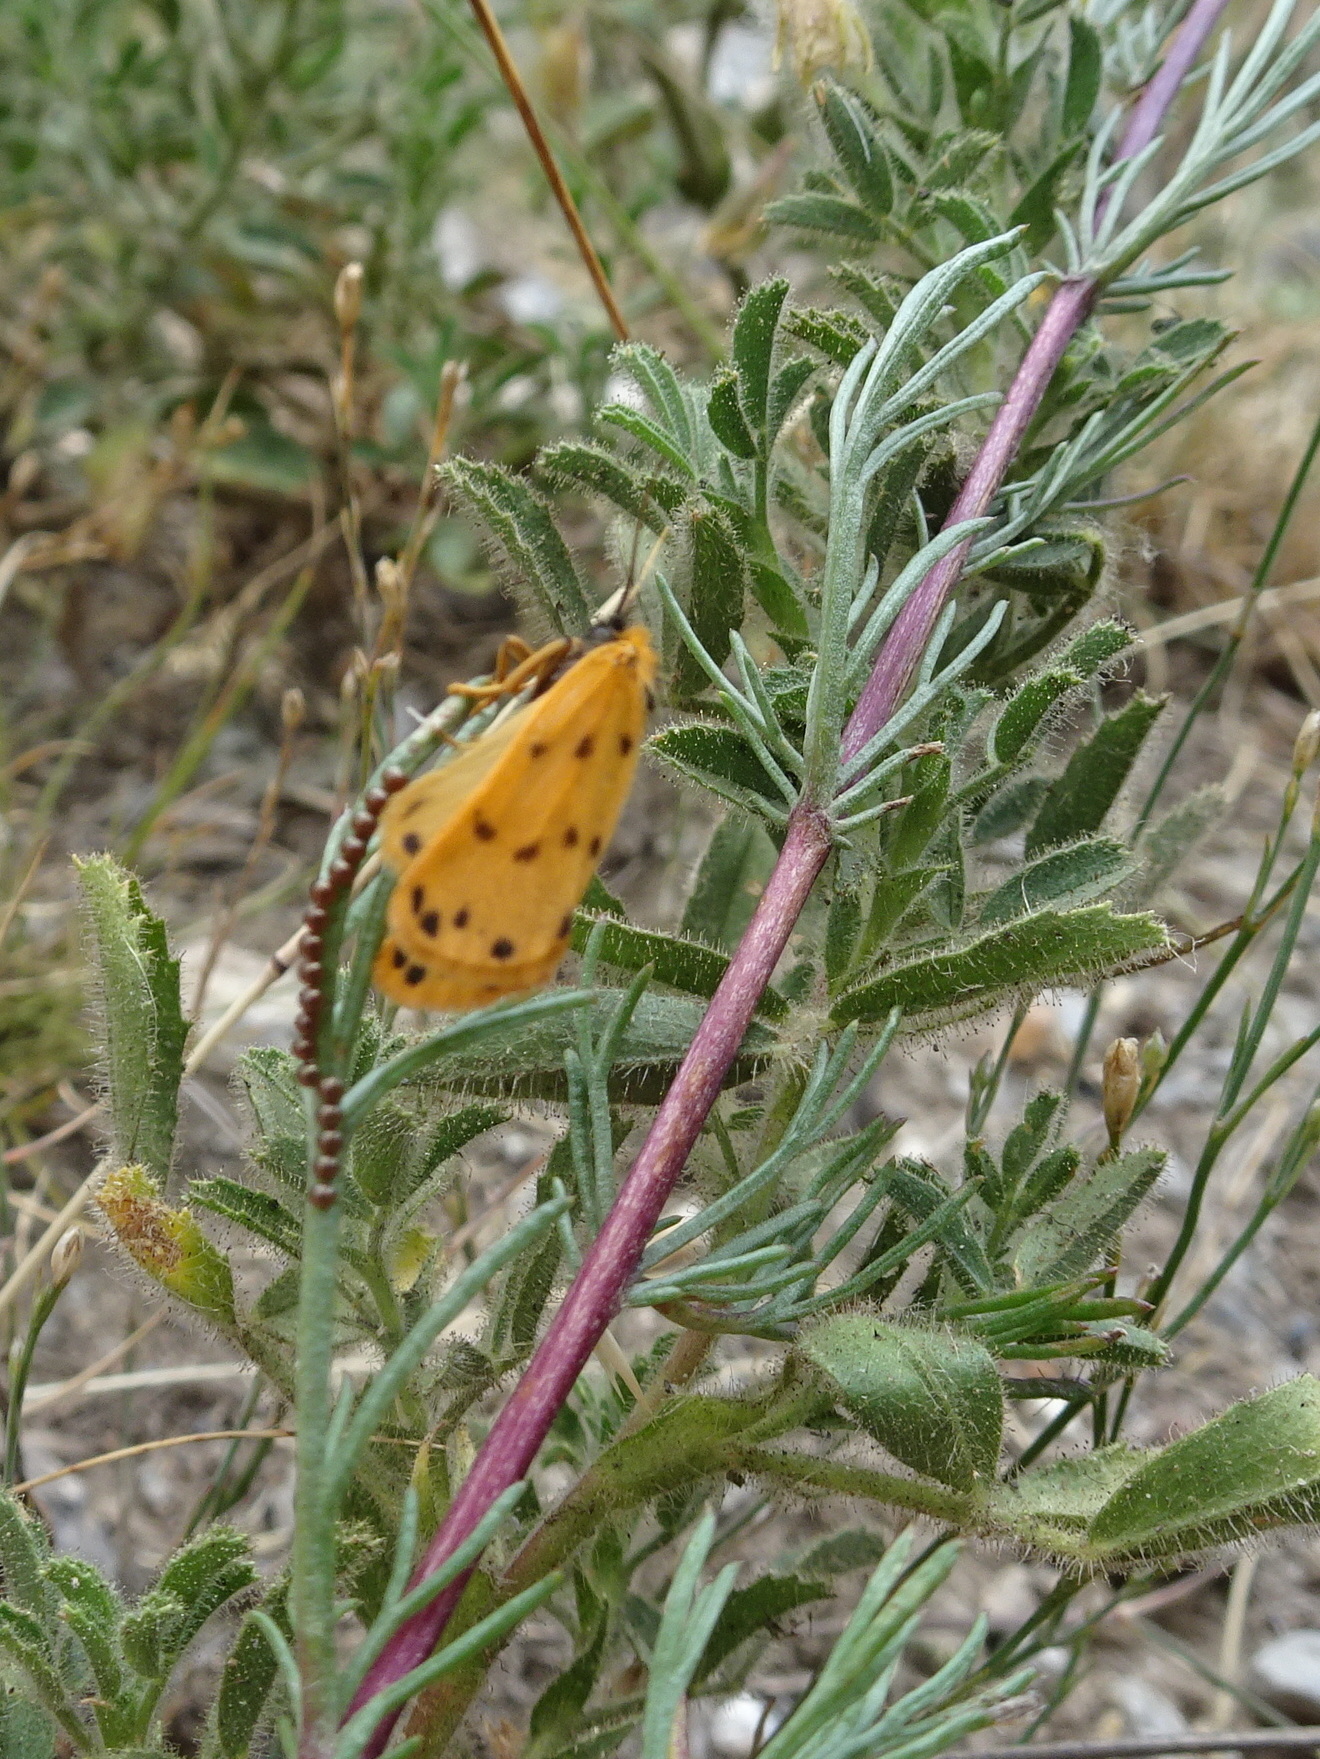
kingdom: Animalia
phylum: Arthropoda
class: Insecta
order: Lepidoptera
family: Erebidae
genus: Setina
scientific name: Setina aurita
